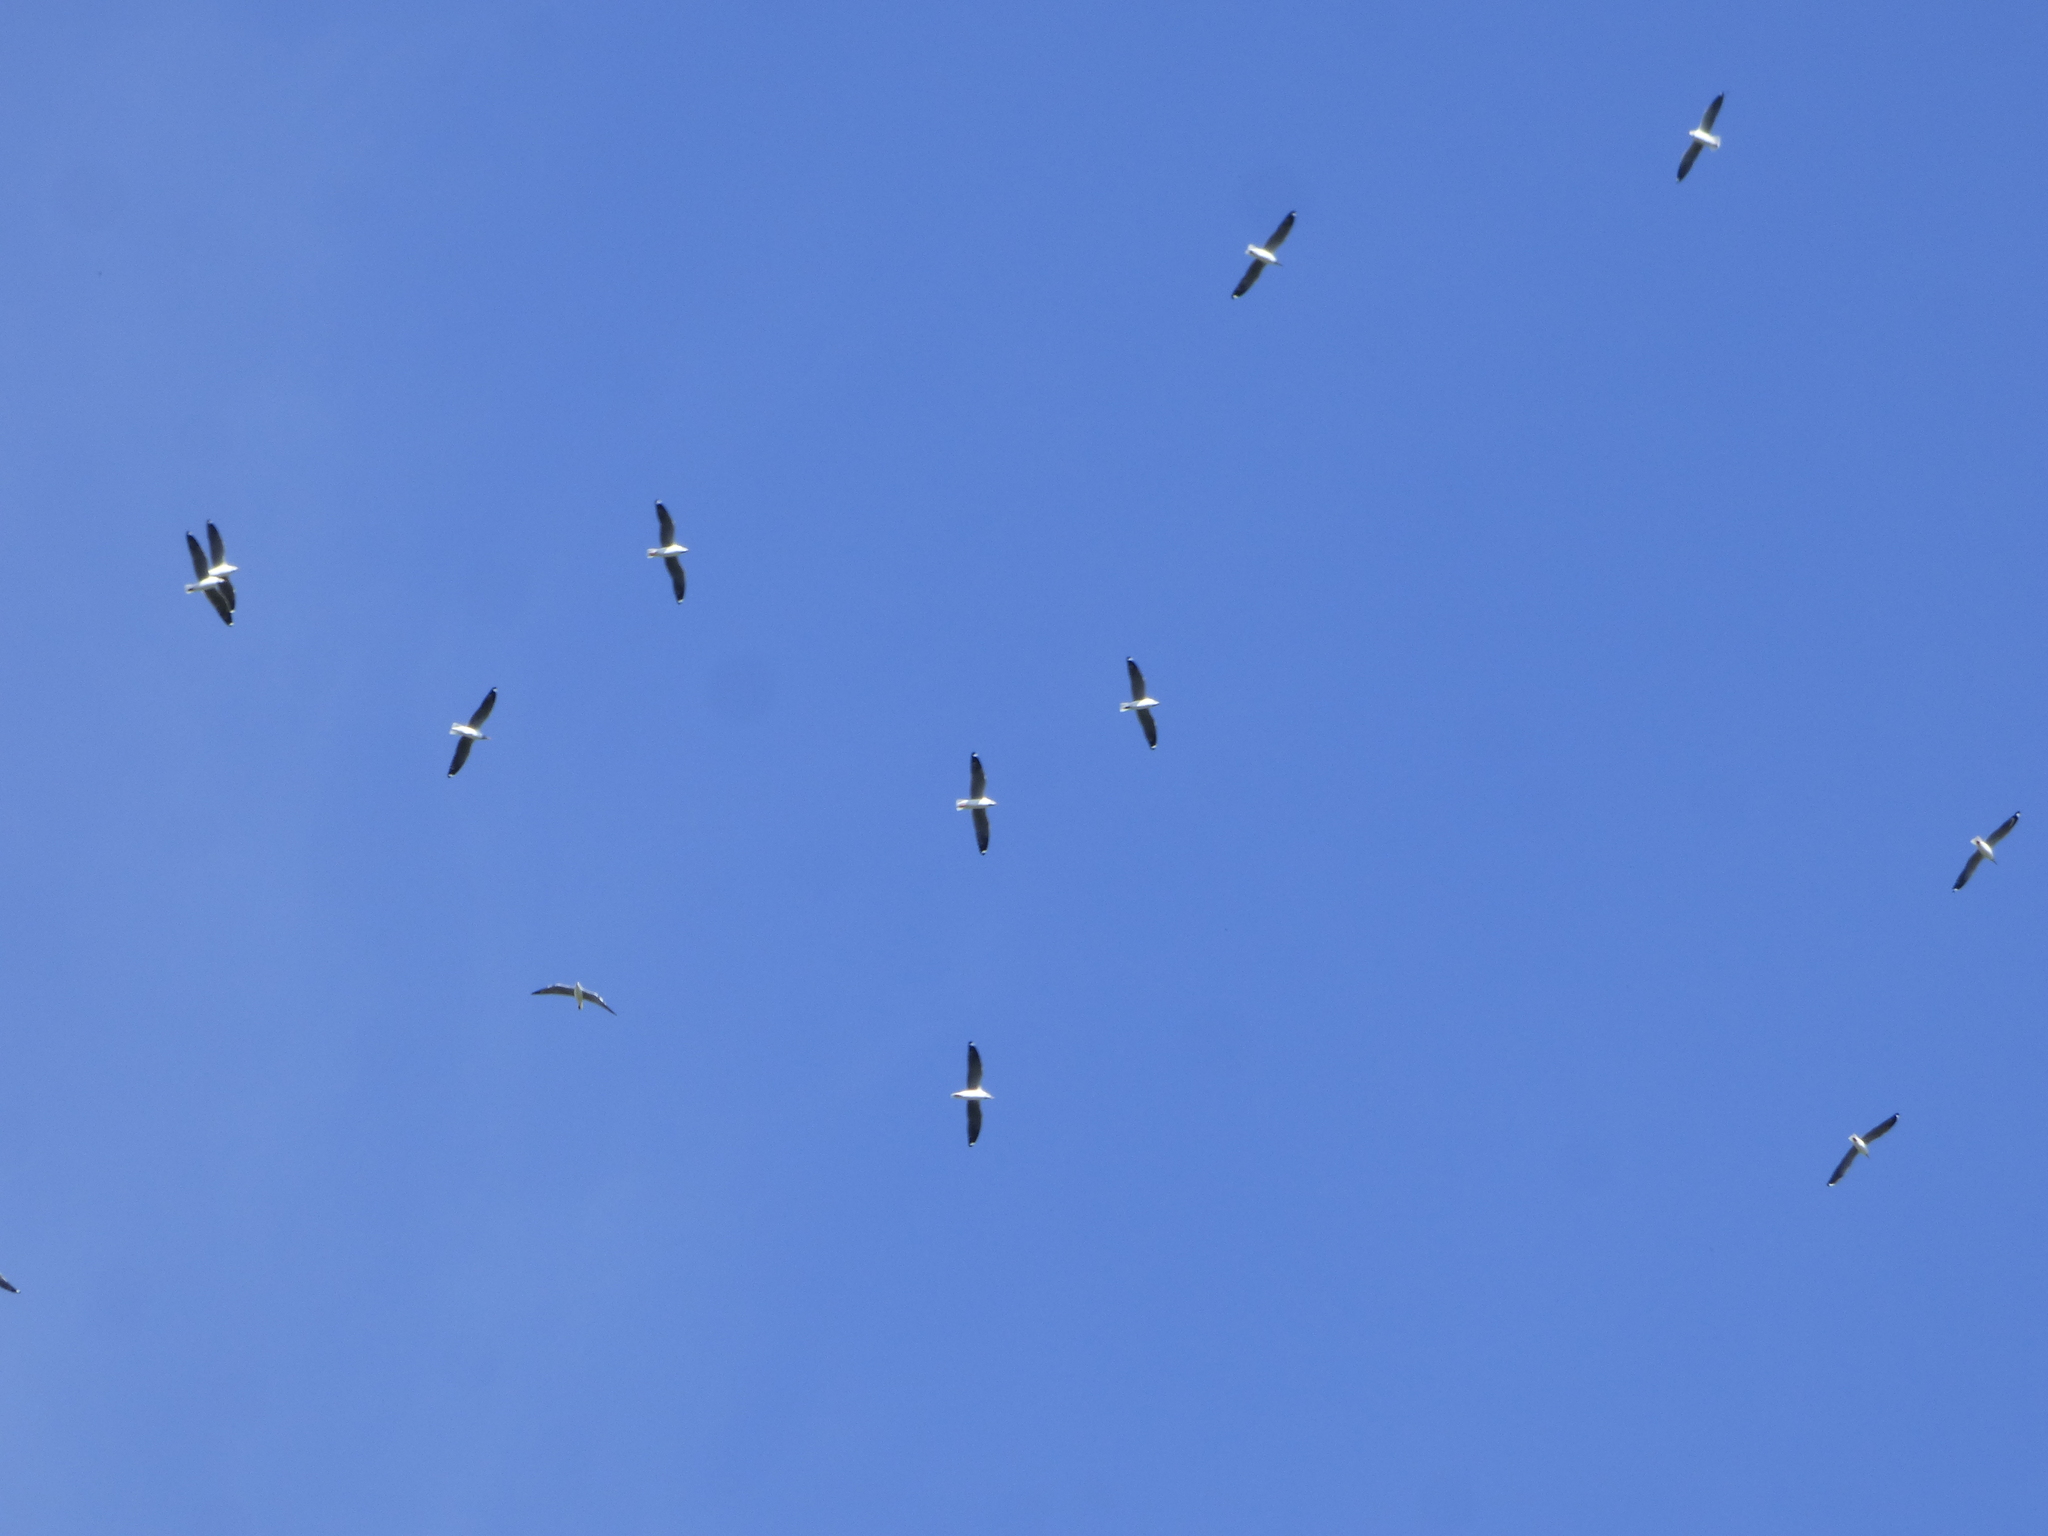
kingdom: Animalia
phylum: Chordata
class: Aves
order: Charadriiformes
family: Laridae
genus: Chroicocephalus
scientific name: Chroicocephalus cirrocephalus
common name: Grey-headed gull
